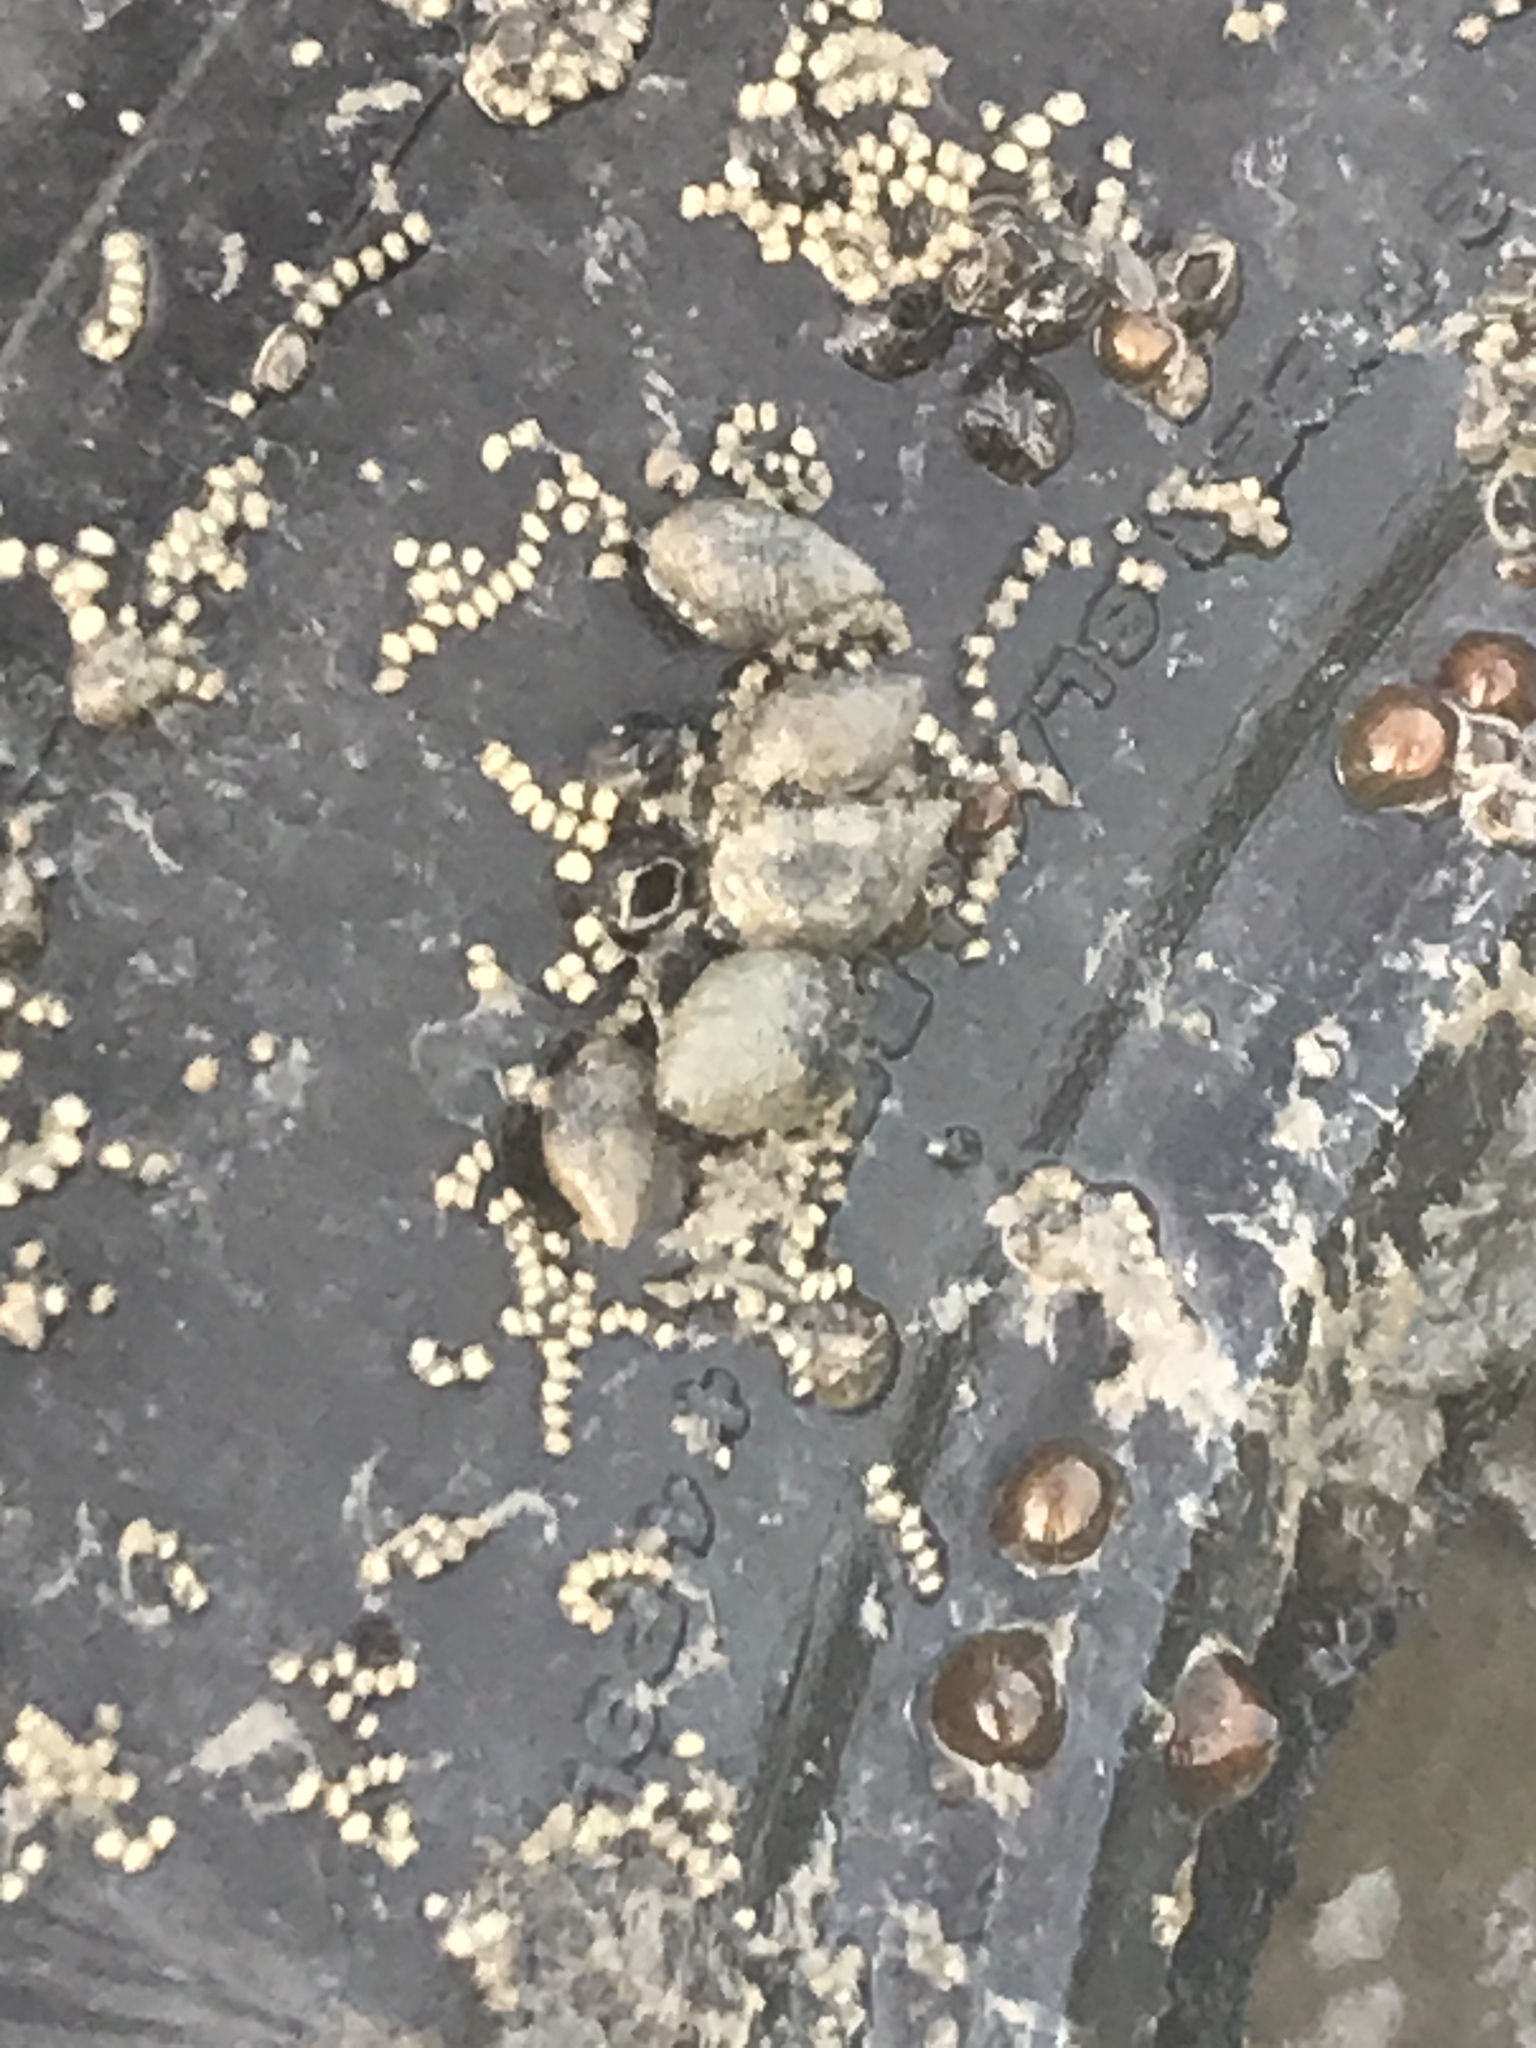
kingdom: Animalia
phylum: Mollusca
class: Gastropoda
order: Neogastropoda
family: Nassariidae
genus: Ilyanassa
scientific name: Ilyanassa obsoleta
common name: Eastern mudsnail
